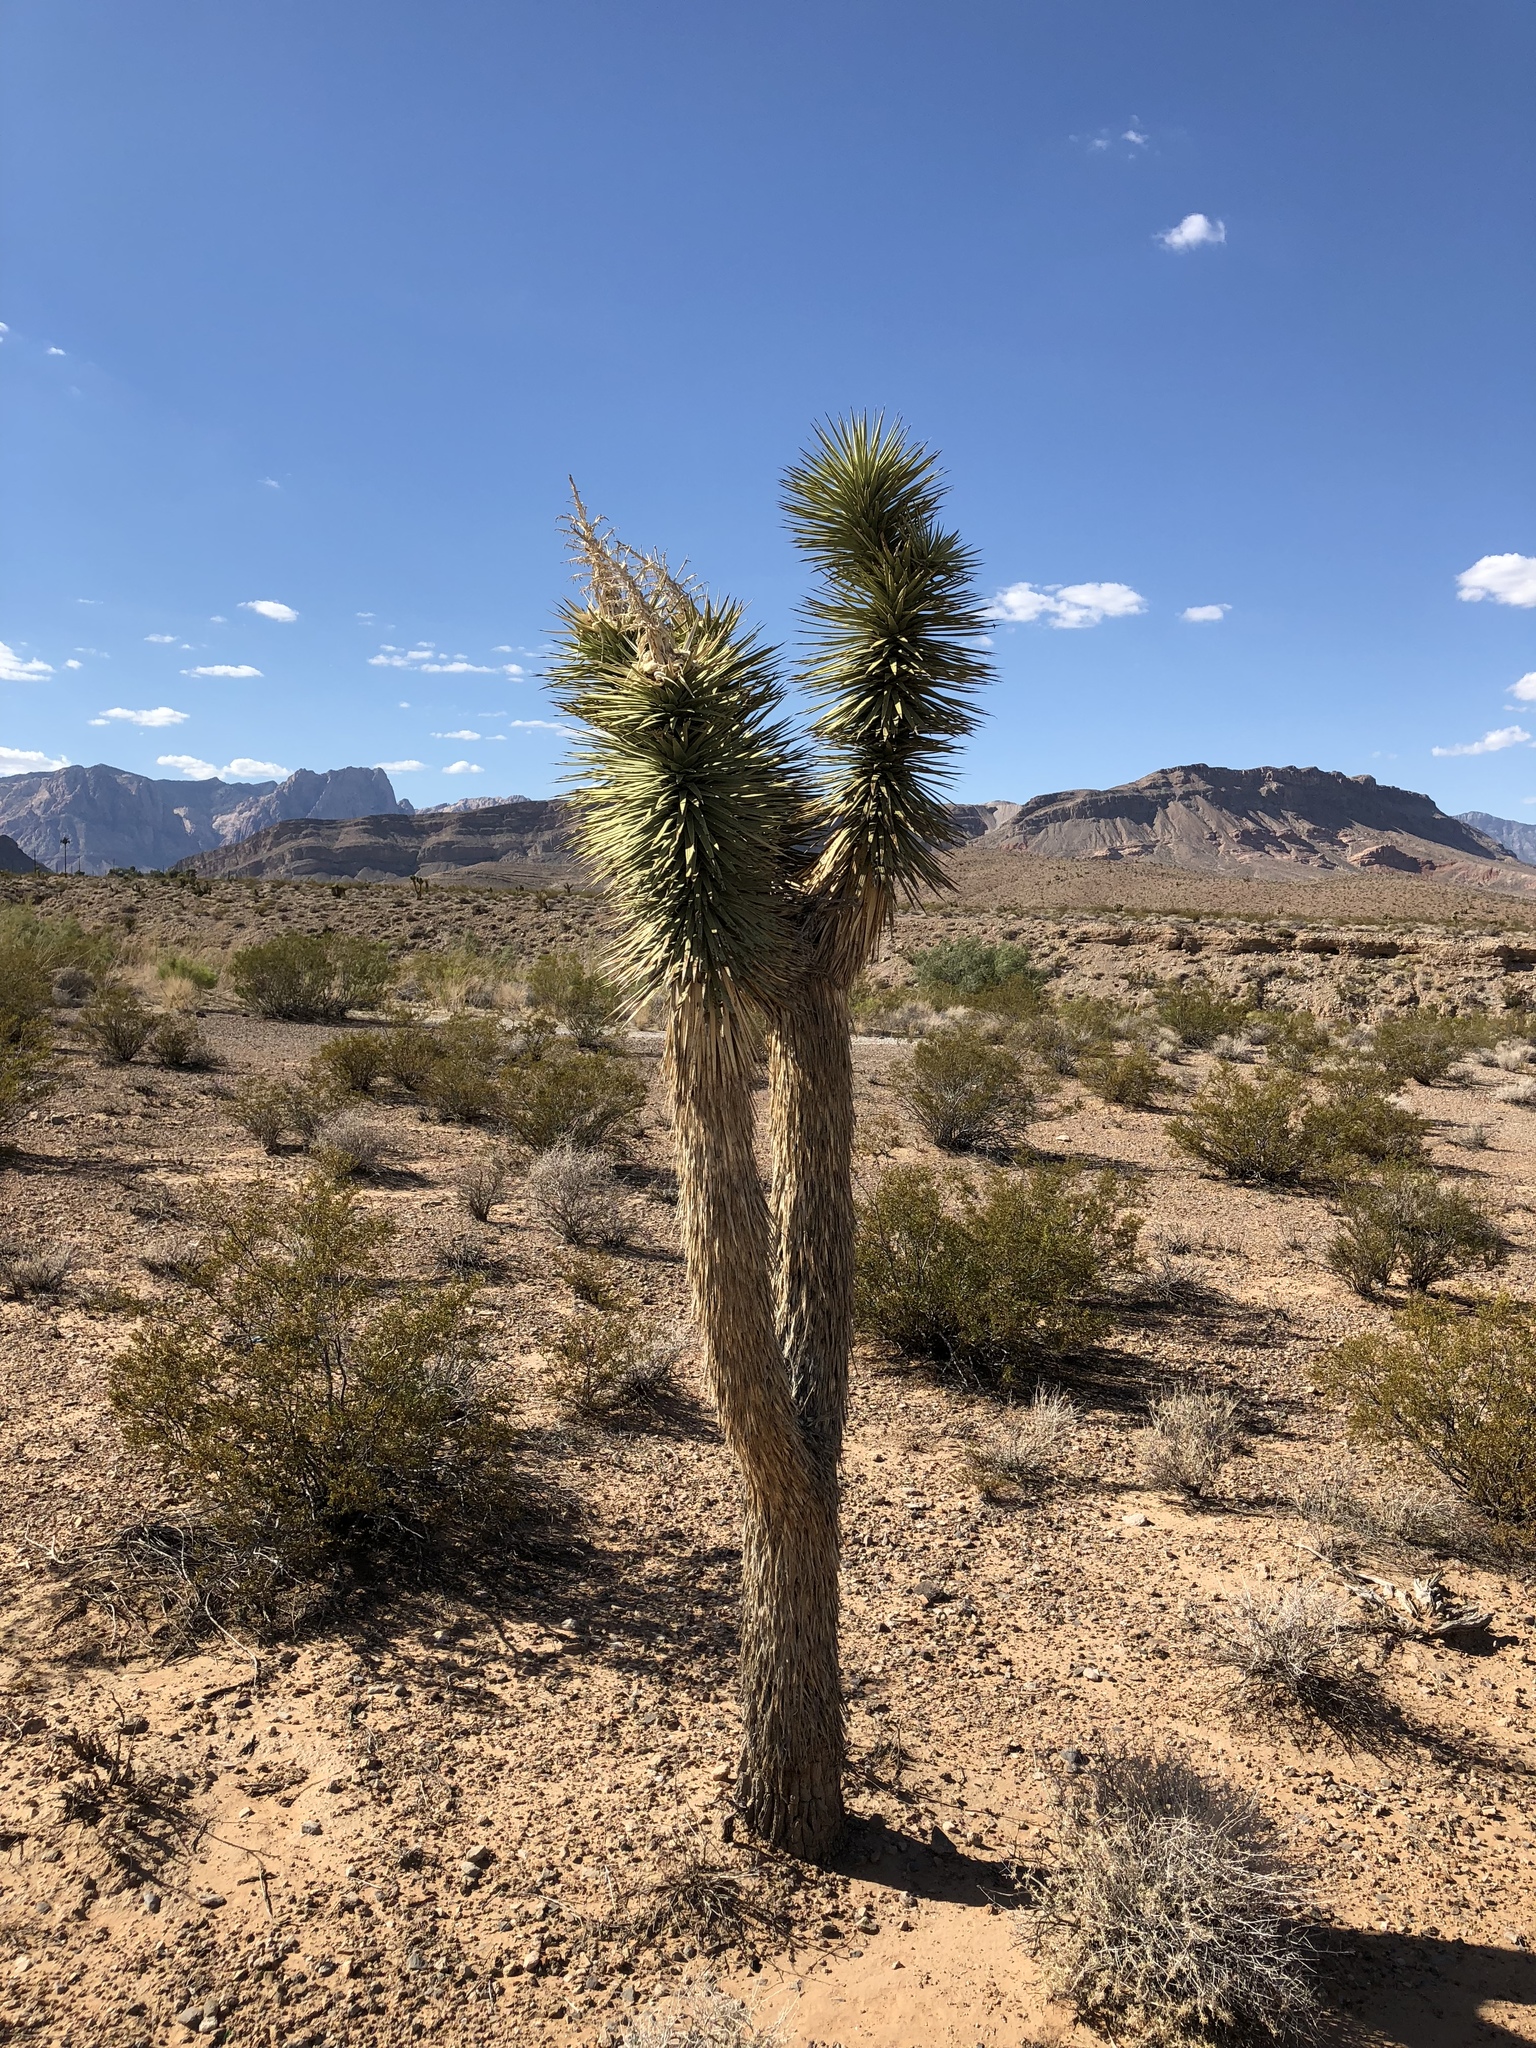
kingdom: Plantae
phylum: Tracheophyta
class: Liliopsida
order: Asparagales
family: Asparagaceae
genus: Yucca
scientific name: Yucca brevifolia
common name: Joshua tree
